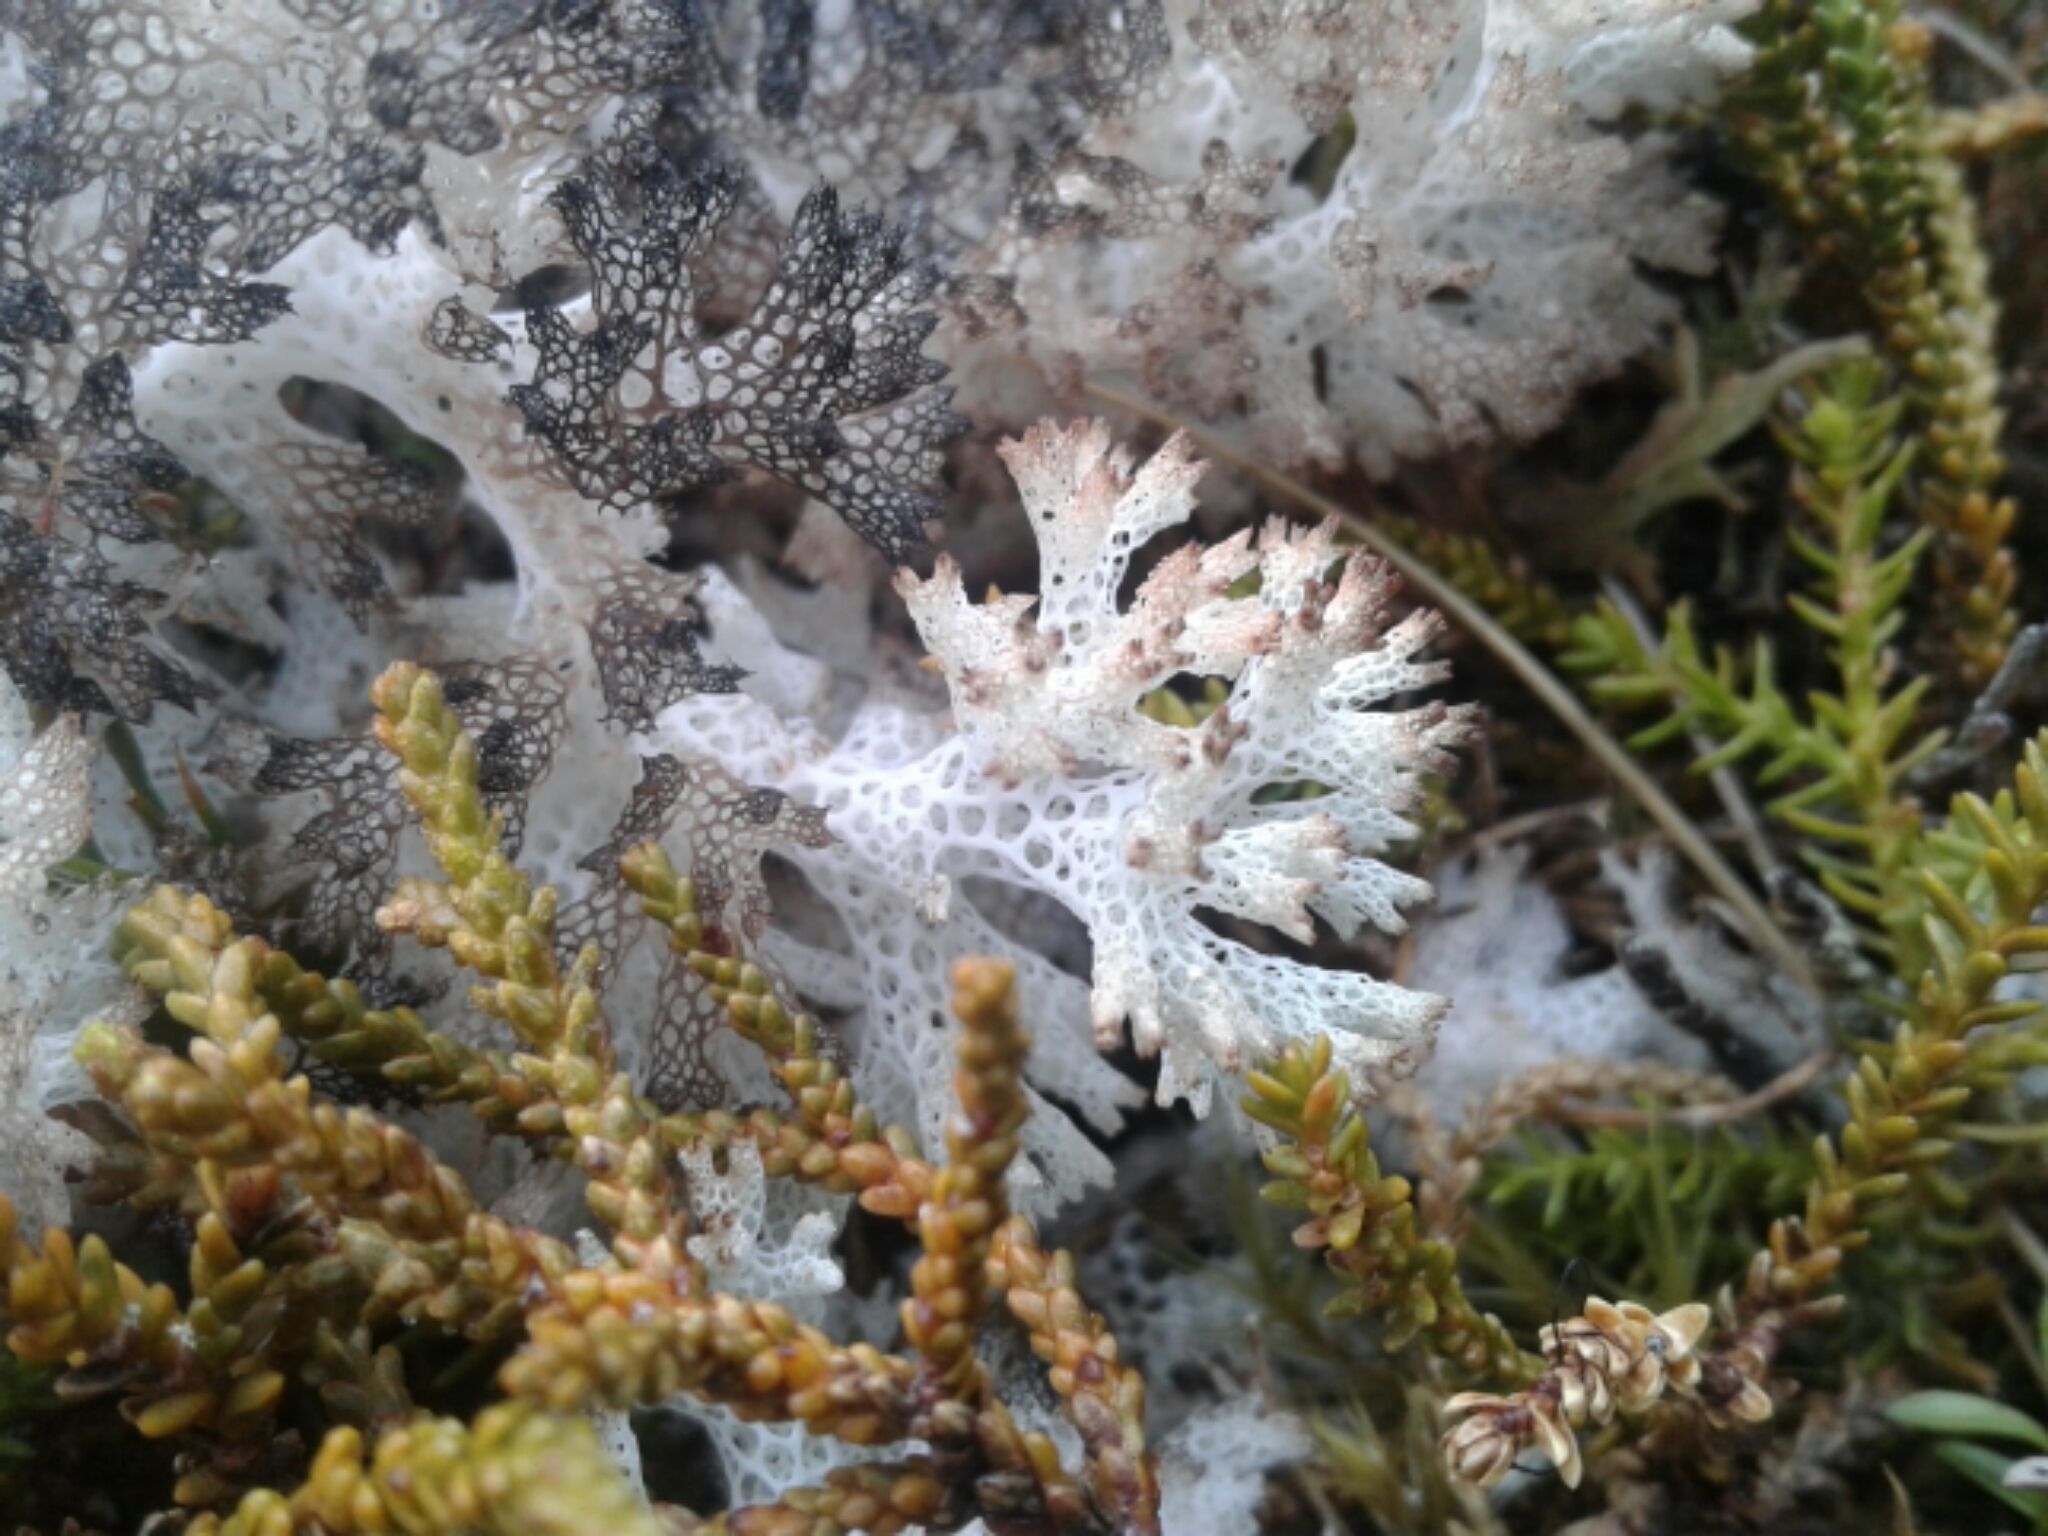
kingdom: Fungi
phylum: Ascomycota
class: Lecanoromycetes
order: Lecanorales
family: Cladoniaceae
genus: Pulchrocladia
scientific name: Pulchrocladia retipora
